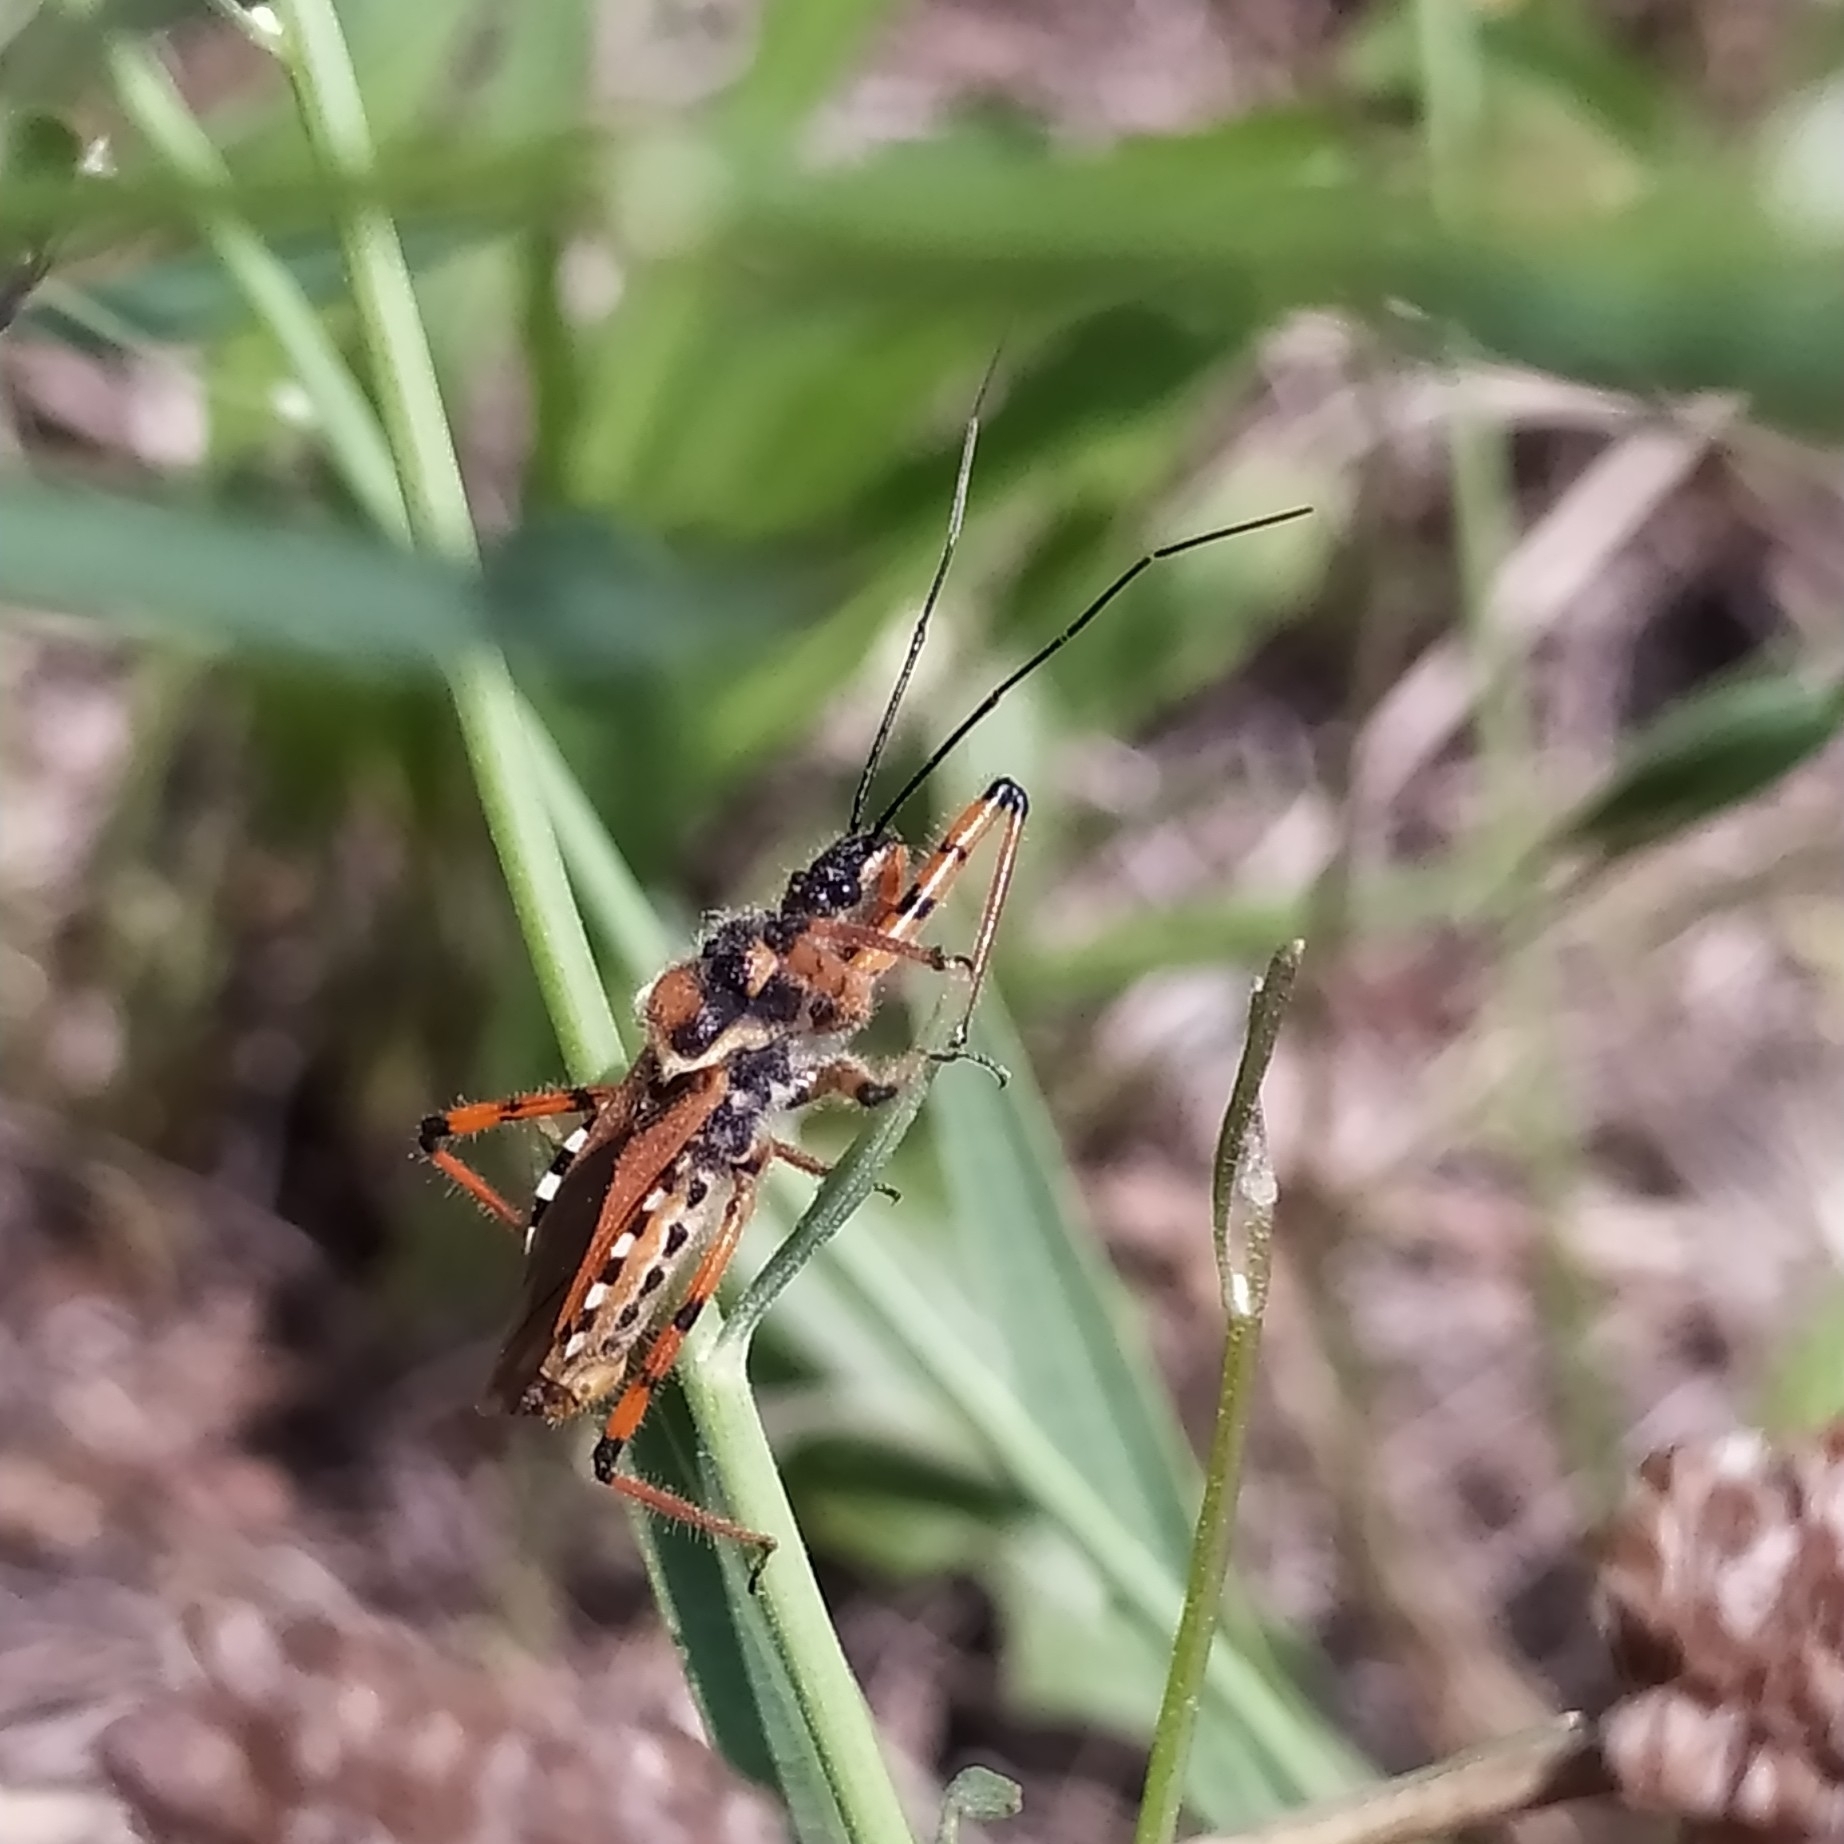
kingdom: Animalia
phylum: Arthropoda
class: Insecta
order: Hemiptera
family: Reduviidae
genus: Rhynocoris
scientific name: Rhynocoris punctiventris
